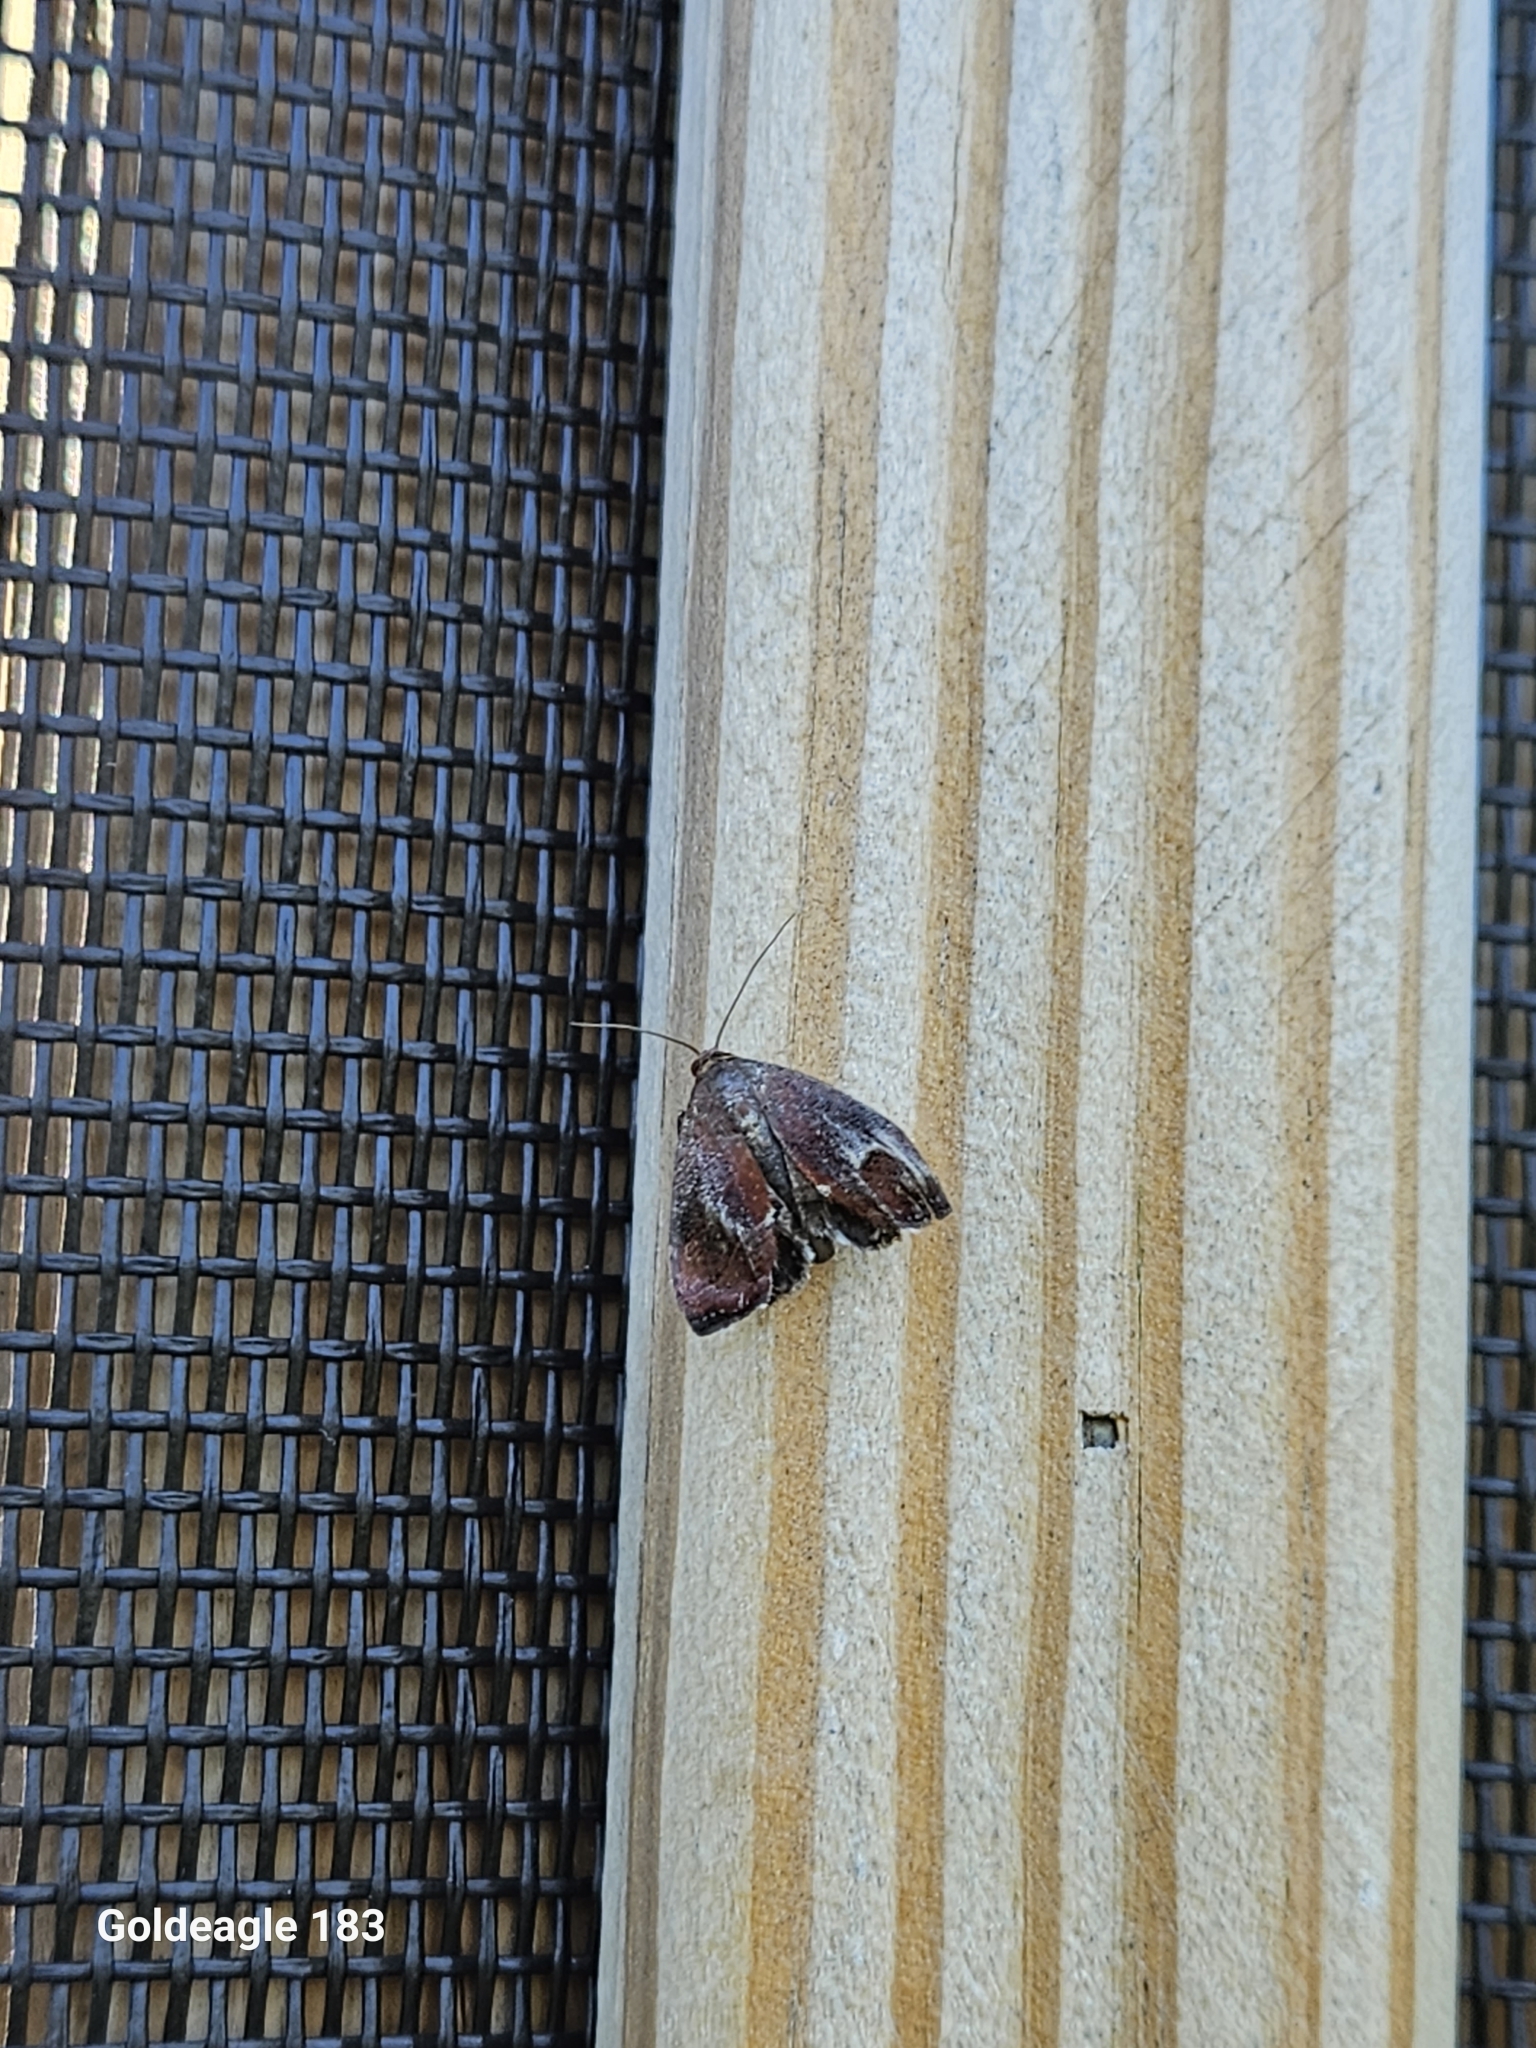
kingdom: Animalia
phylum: Arthropoda
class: Insecta
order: Lepidoptera
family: Limacodidae
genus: Adoneta
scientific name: Adoneta spinuloides
